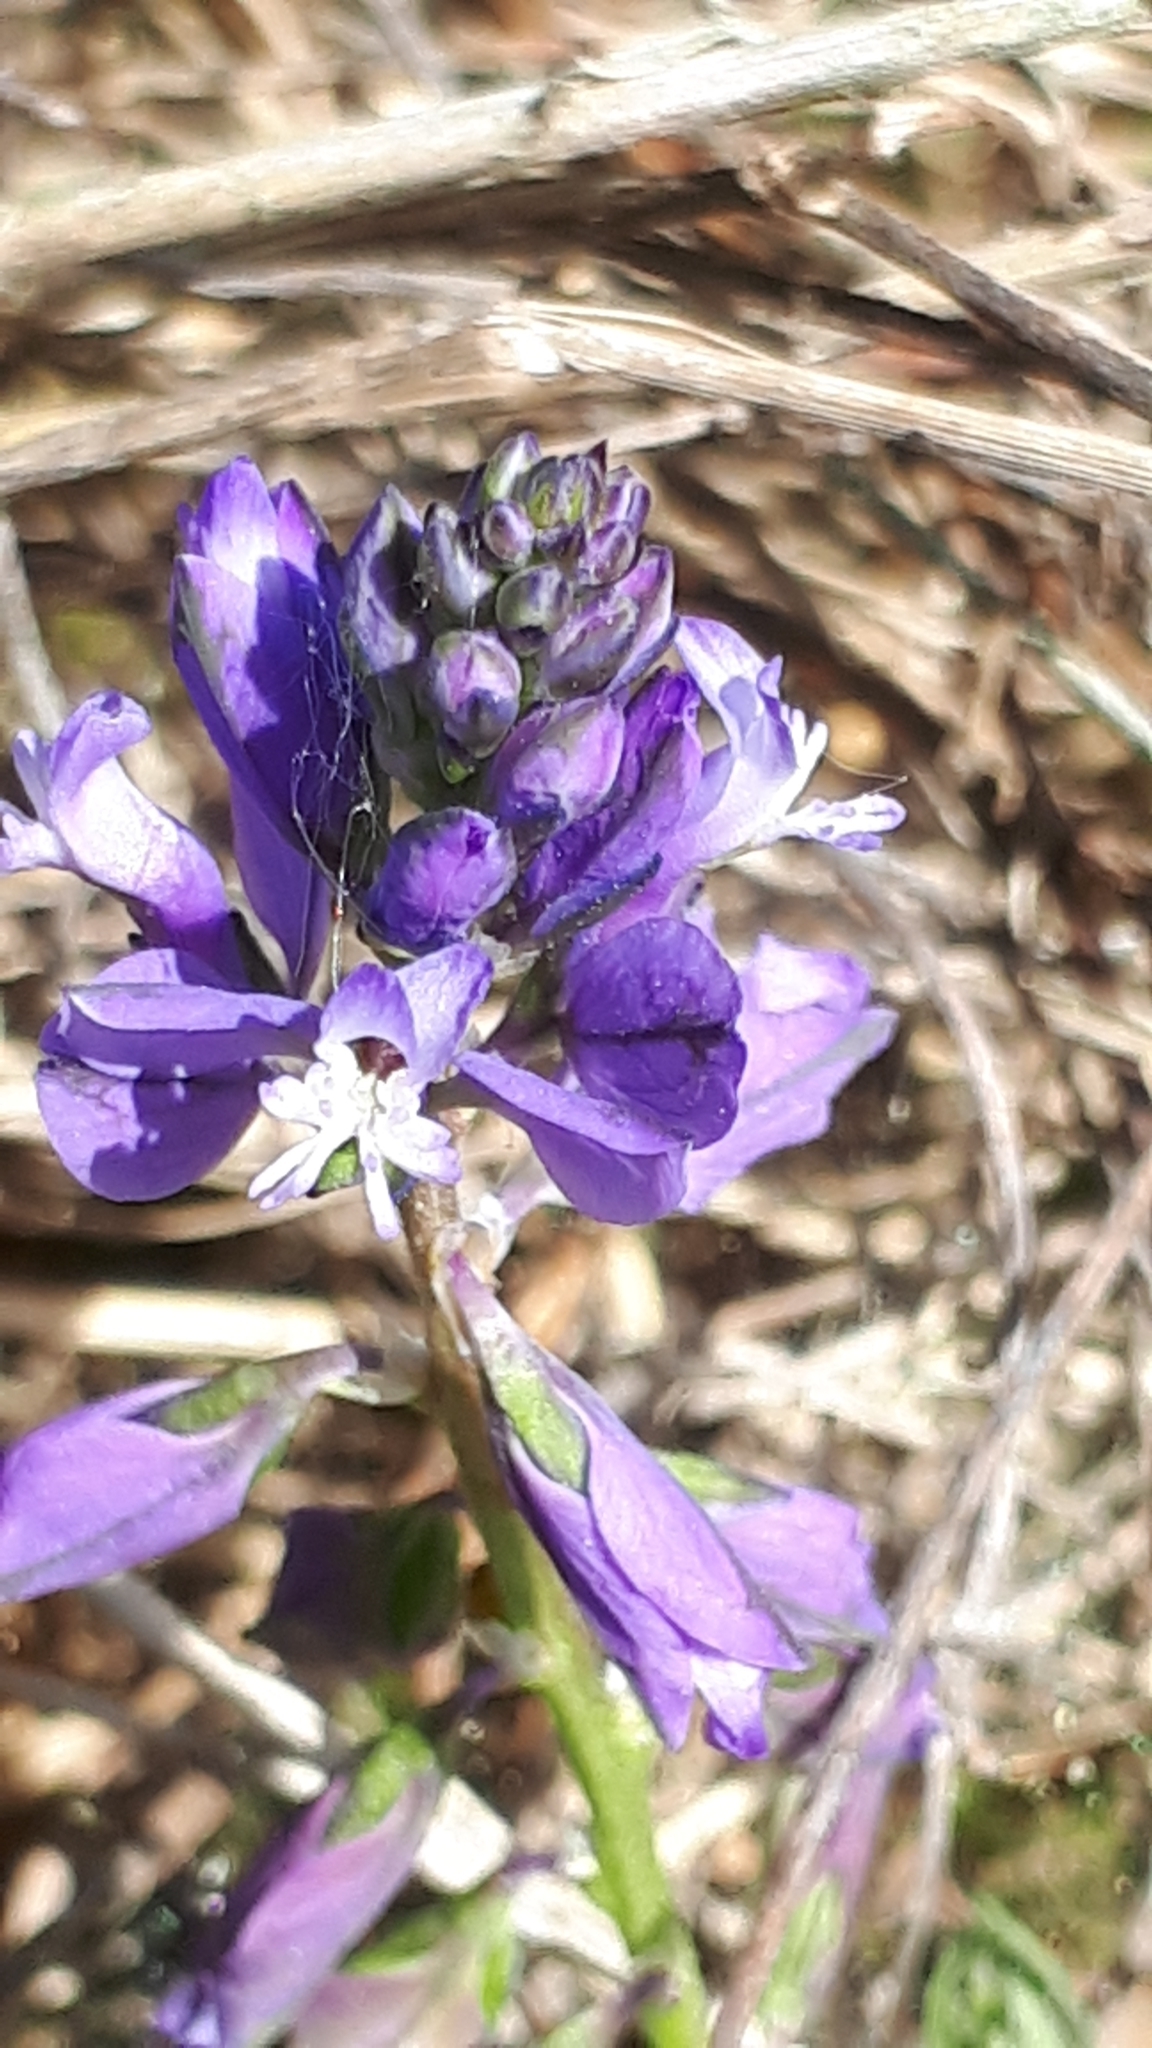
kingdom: Plantae
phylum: Tracheophyta
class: Magnoliopsida
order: Fabales
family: Polygalaceae
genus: Polygala
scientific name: Polygala vulgaris
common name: Common milkwort
